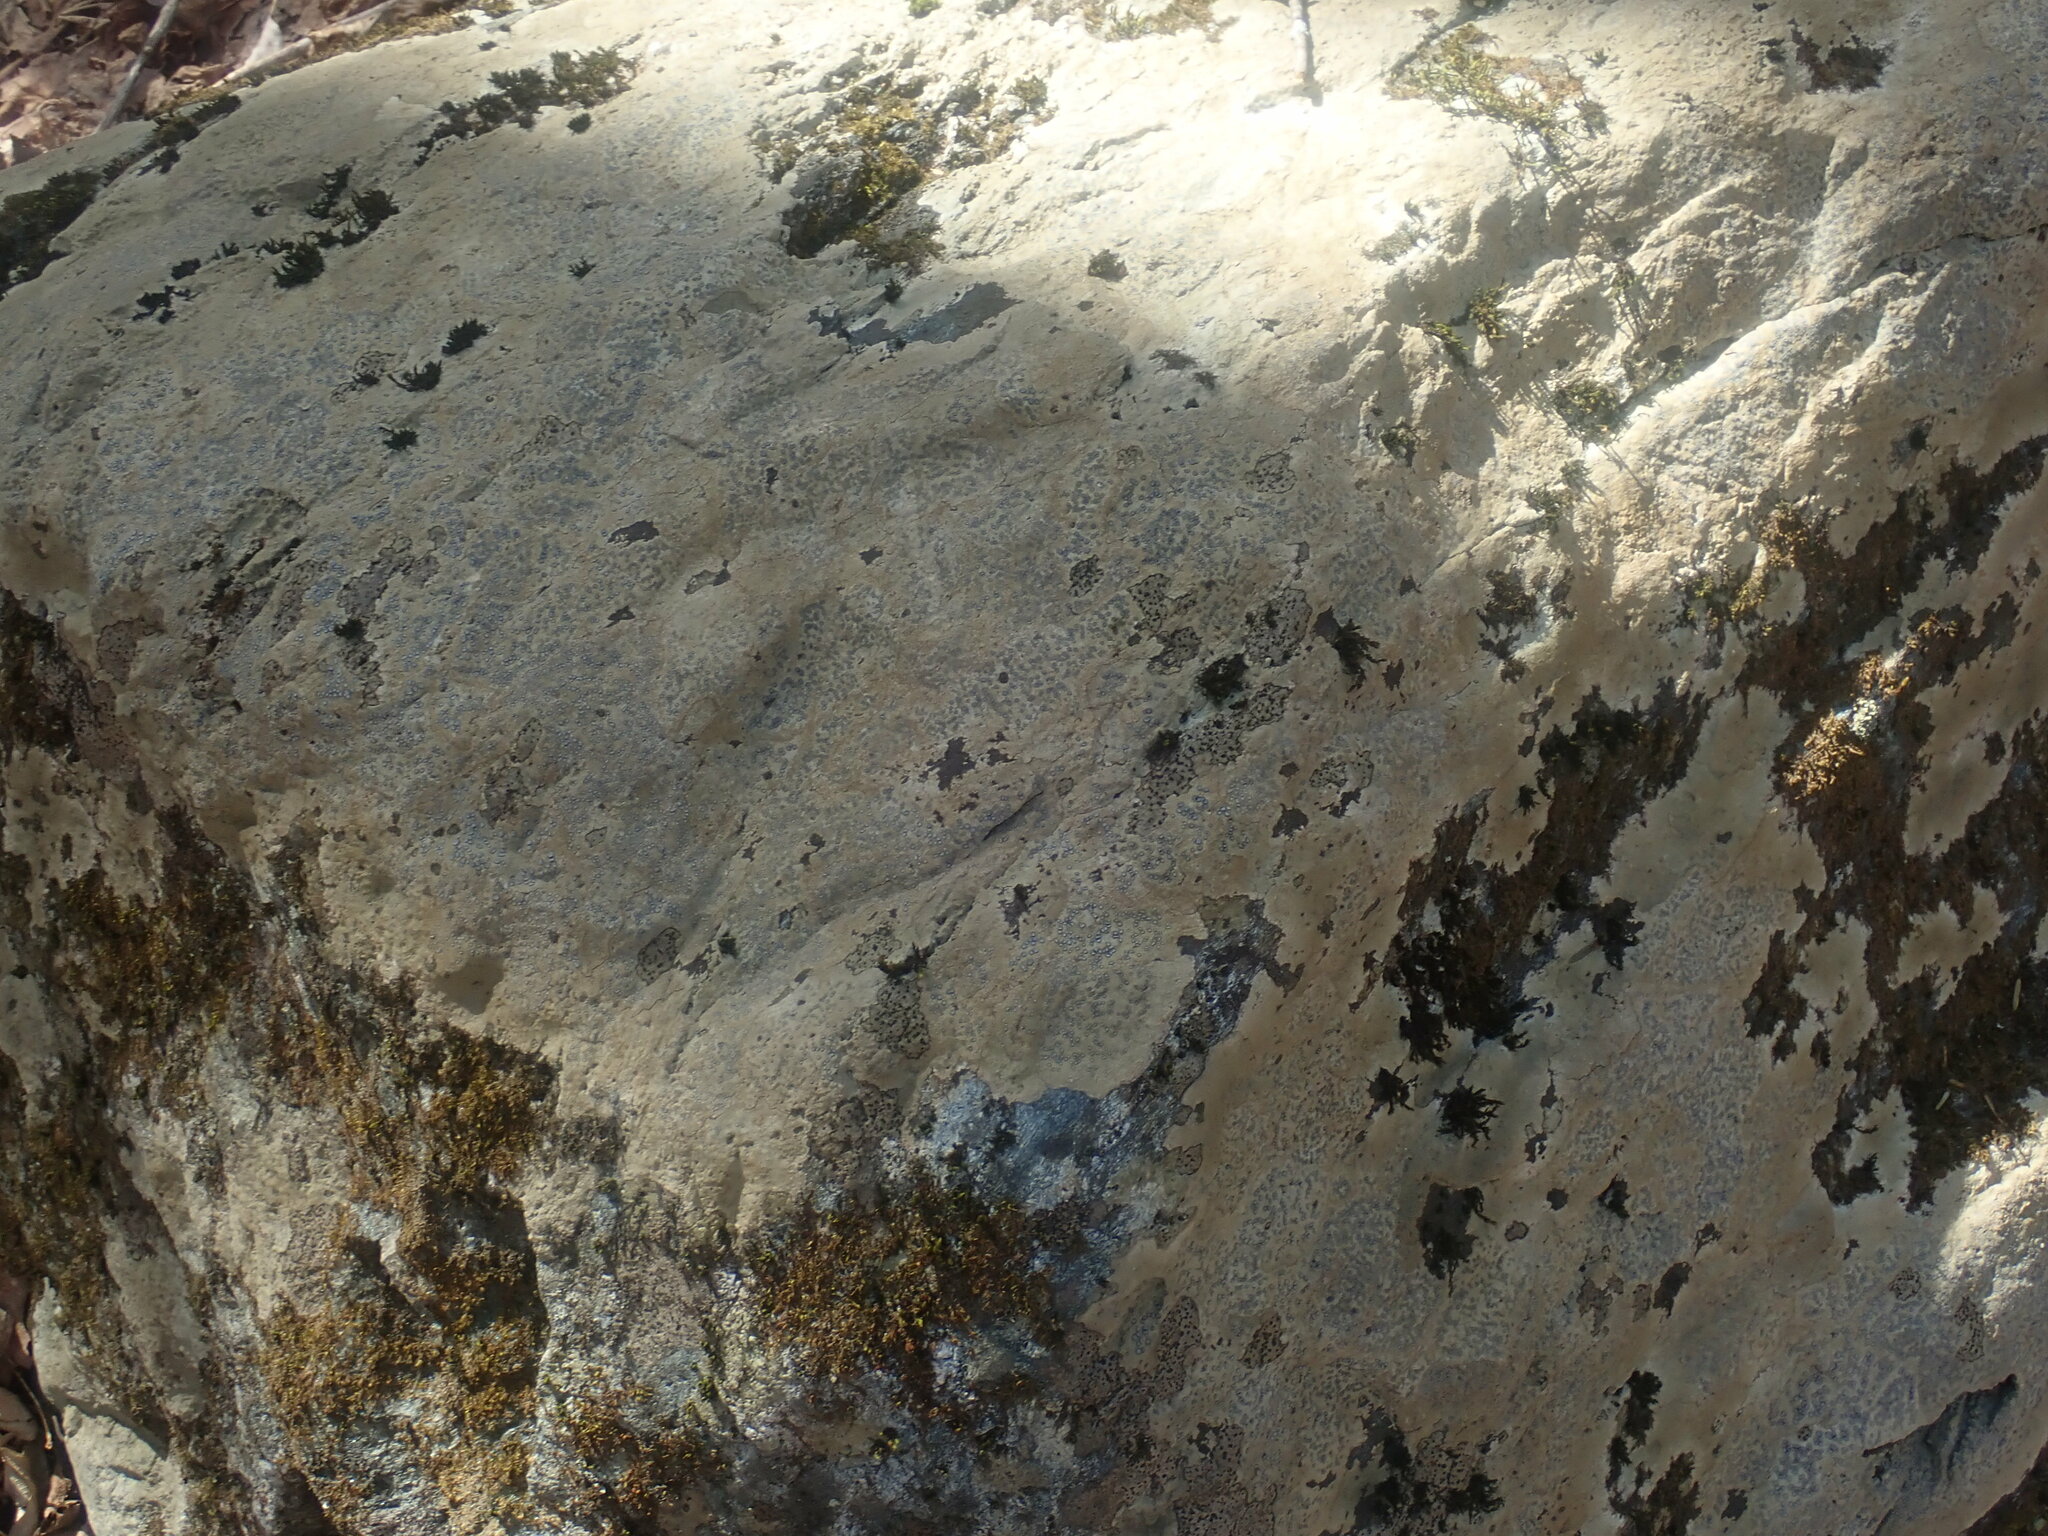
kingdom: Fungi
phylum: Ascomycota
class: Lecanoromycetes
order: Lecideales
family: Lecideaceae
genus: Porpidia
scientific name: Porpidia albocaerulescens
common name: Smokey-eyed boulder lichen
